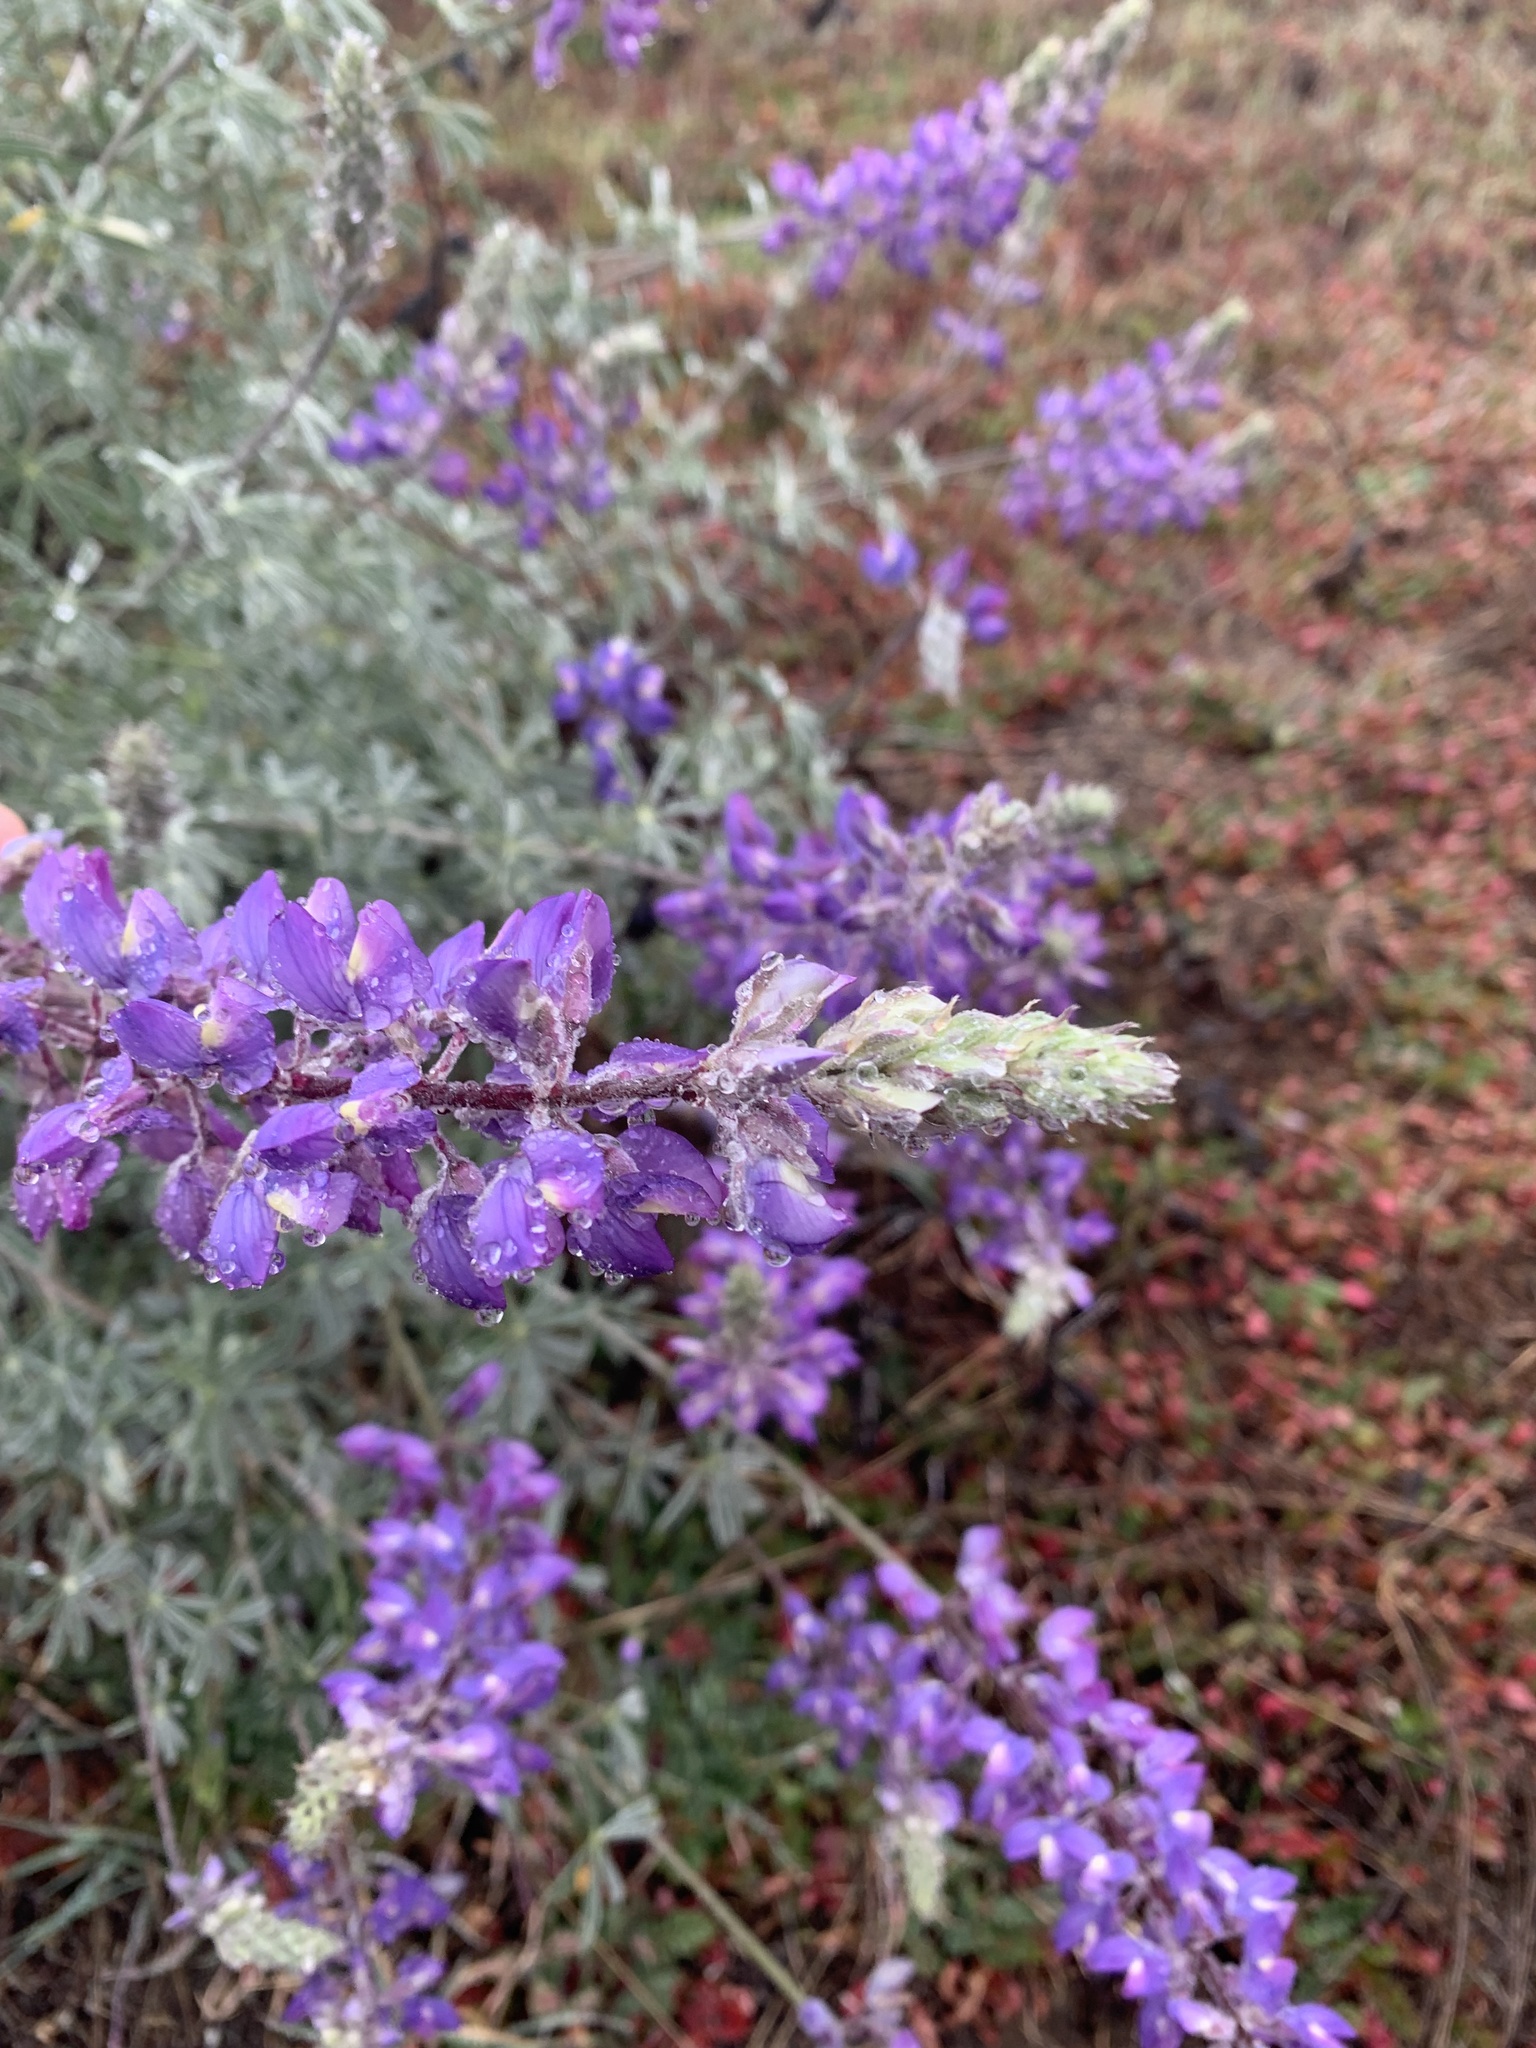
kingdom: Plantae
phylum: Tracheophyta
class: Magnoliopsida
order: Fabales
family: Fabaceae
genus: Lupinus
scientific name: Lupinus albifrons
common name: Foothill lupine
